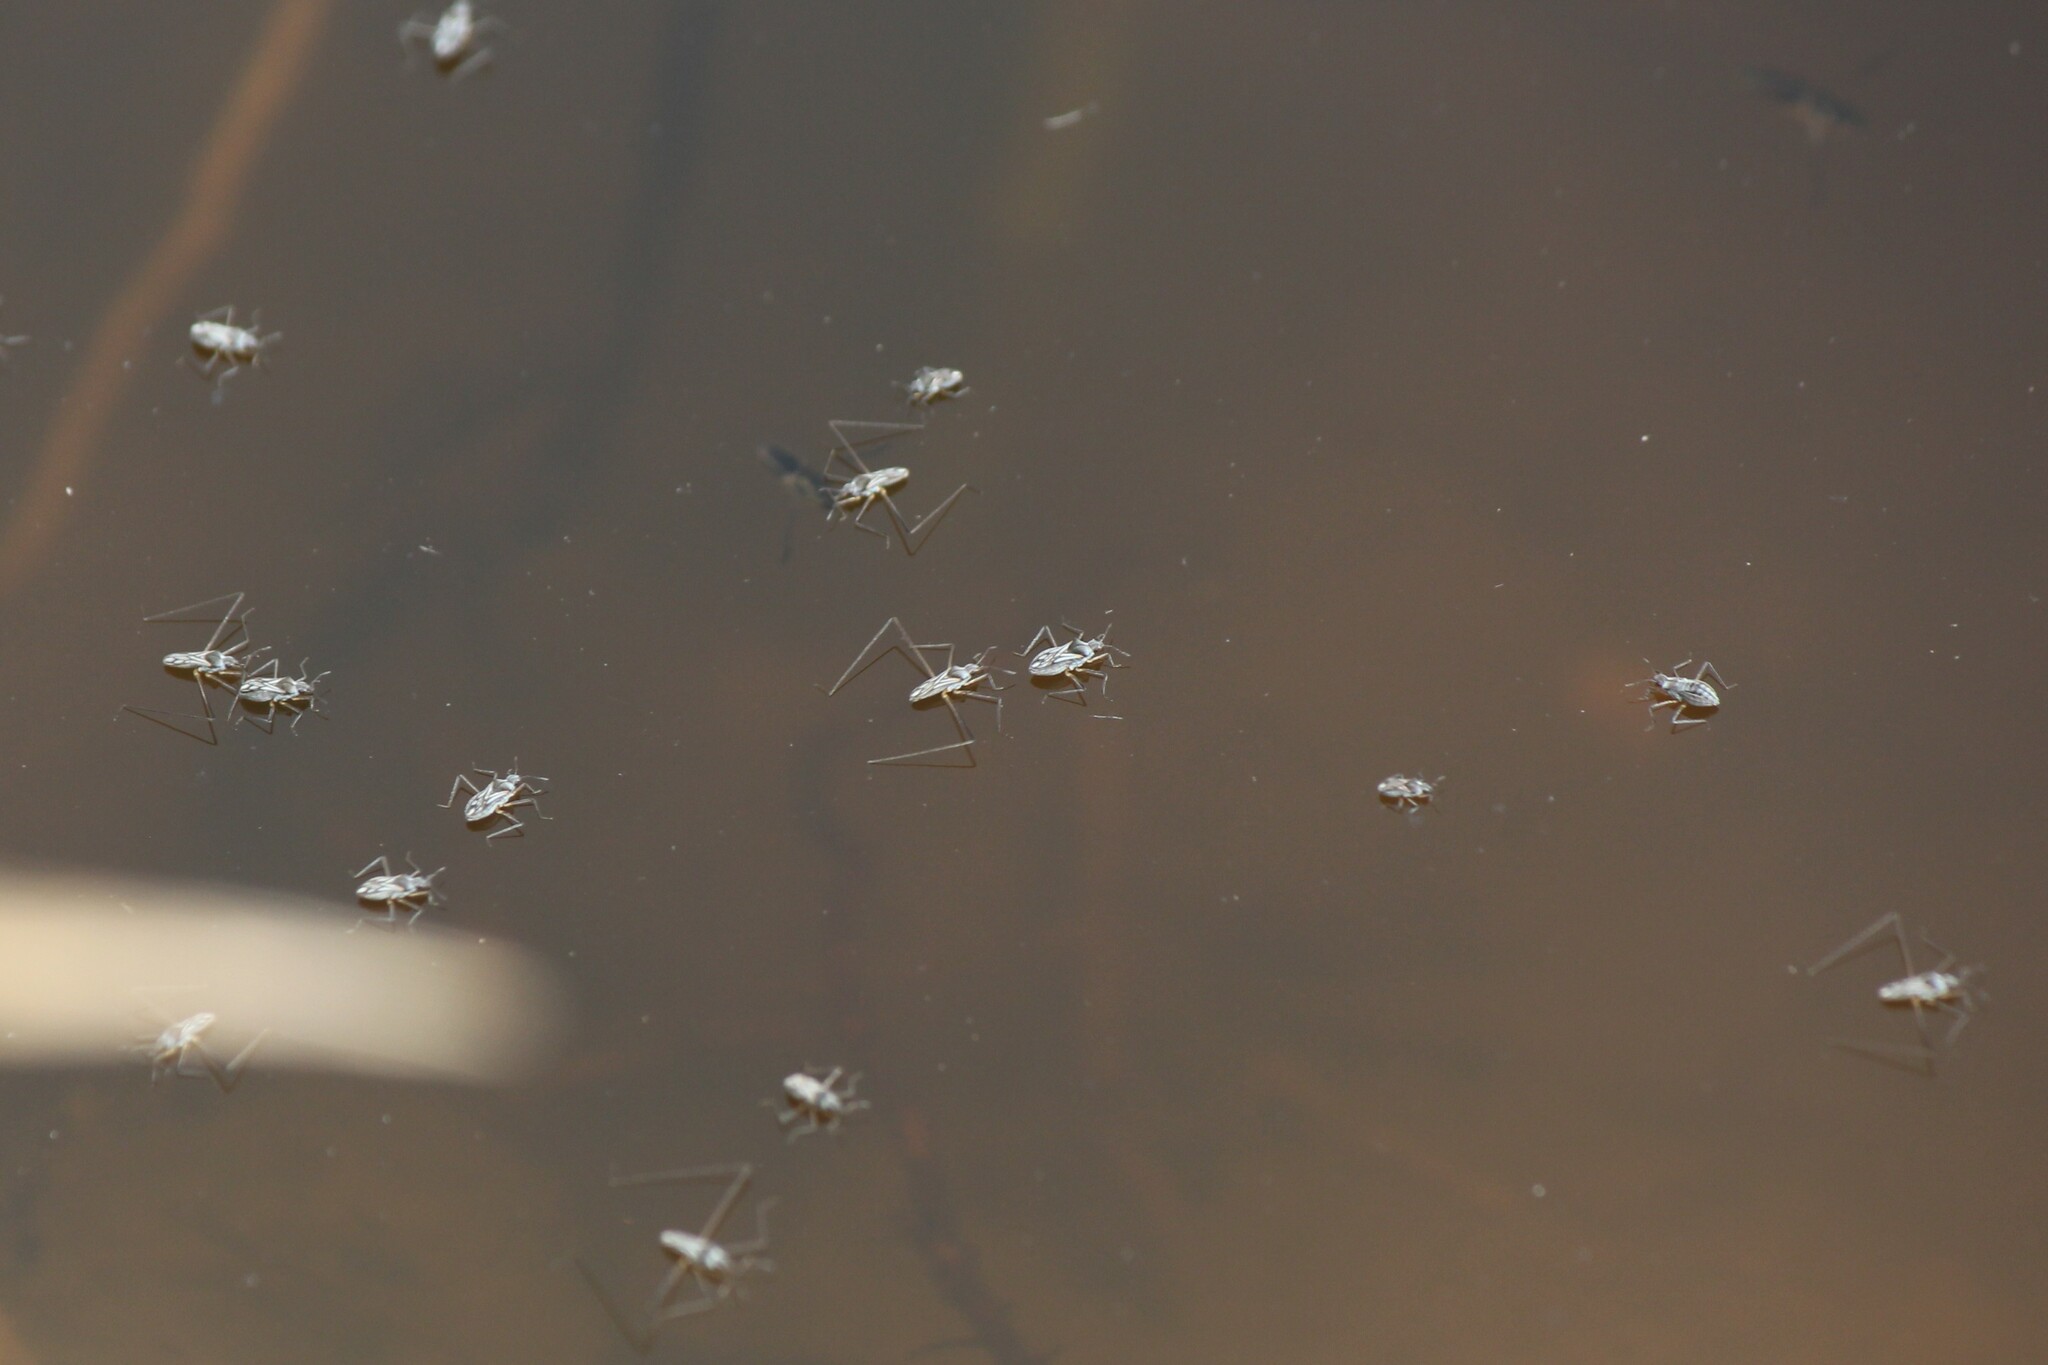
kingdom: Animalia
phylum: Arthropoda
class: Insecta
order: Hemiptera
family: Veliidae
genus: Microvelia
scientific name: Microvelia longipes
